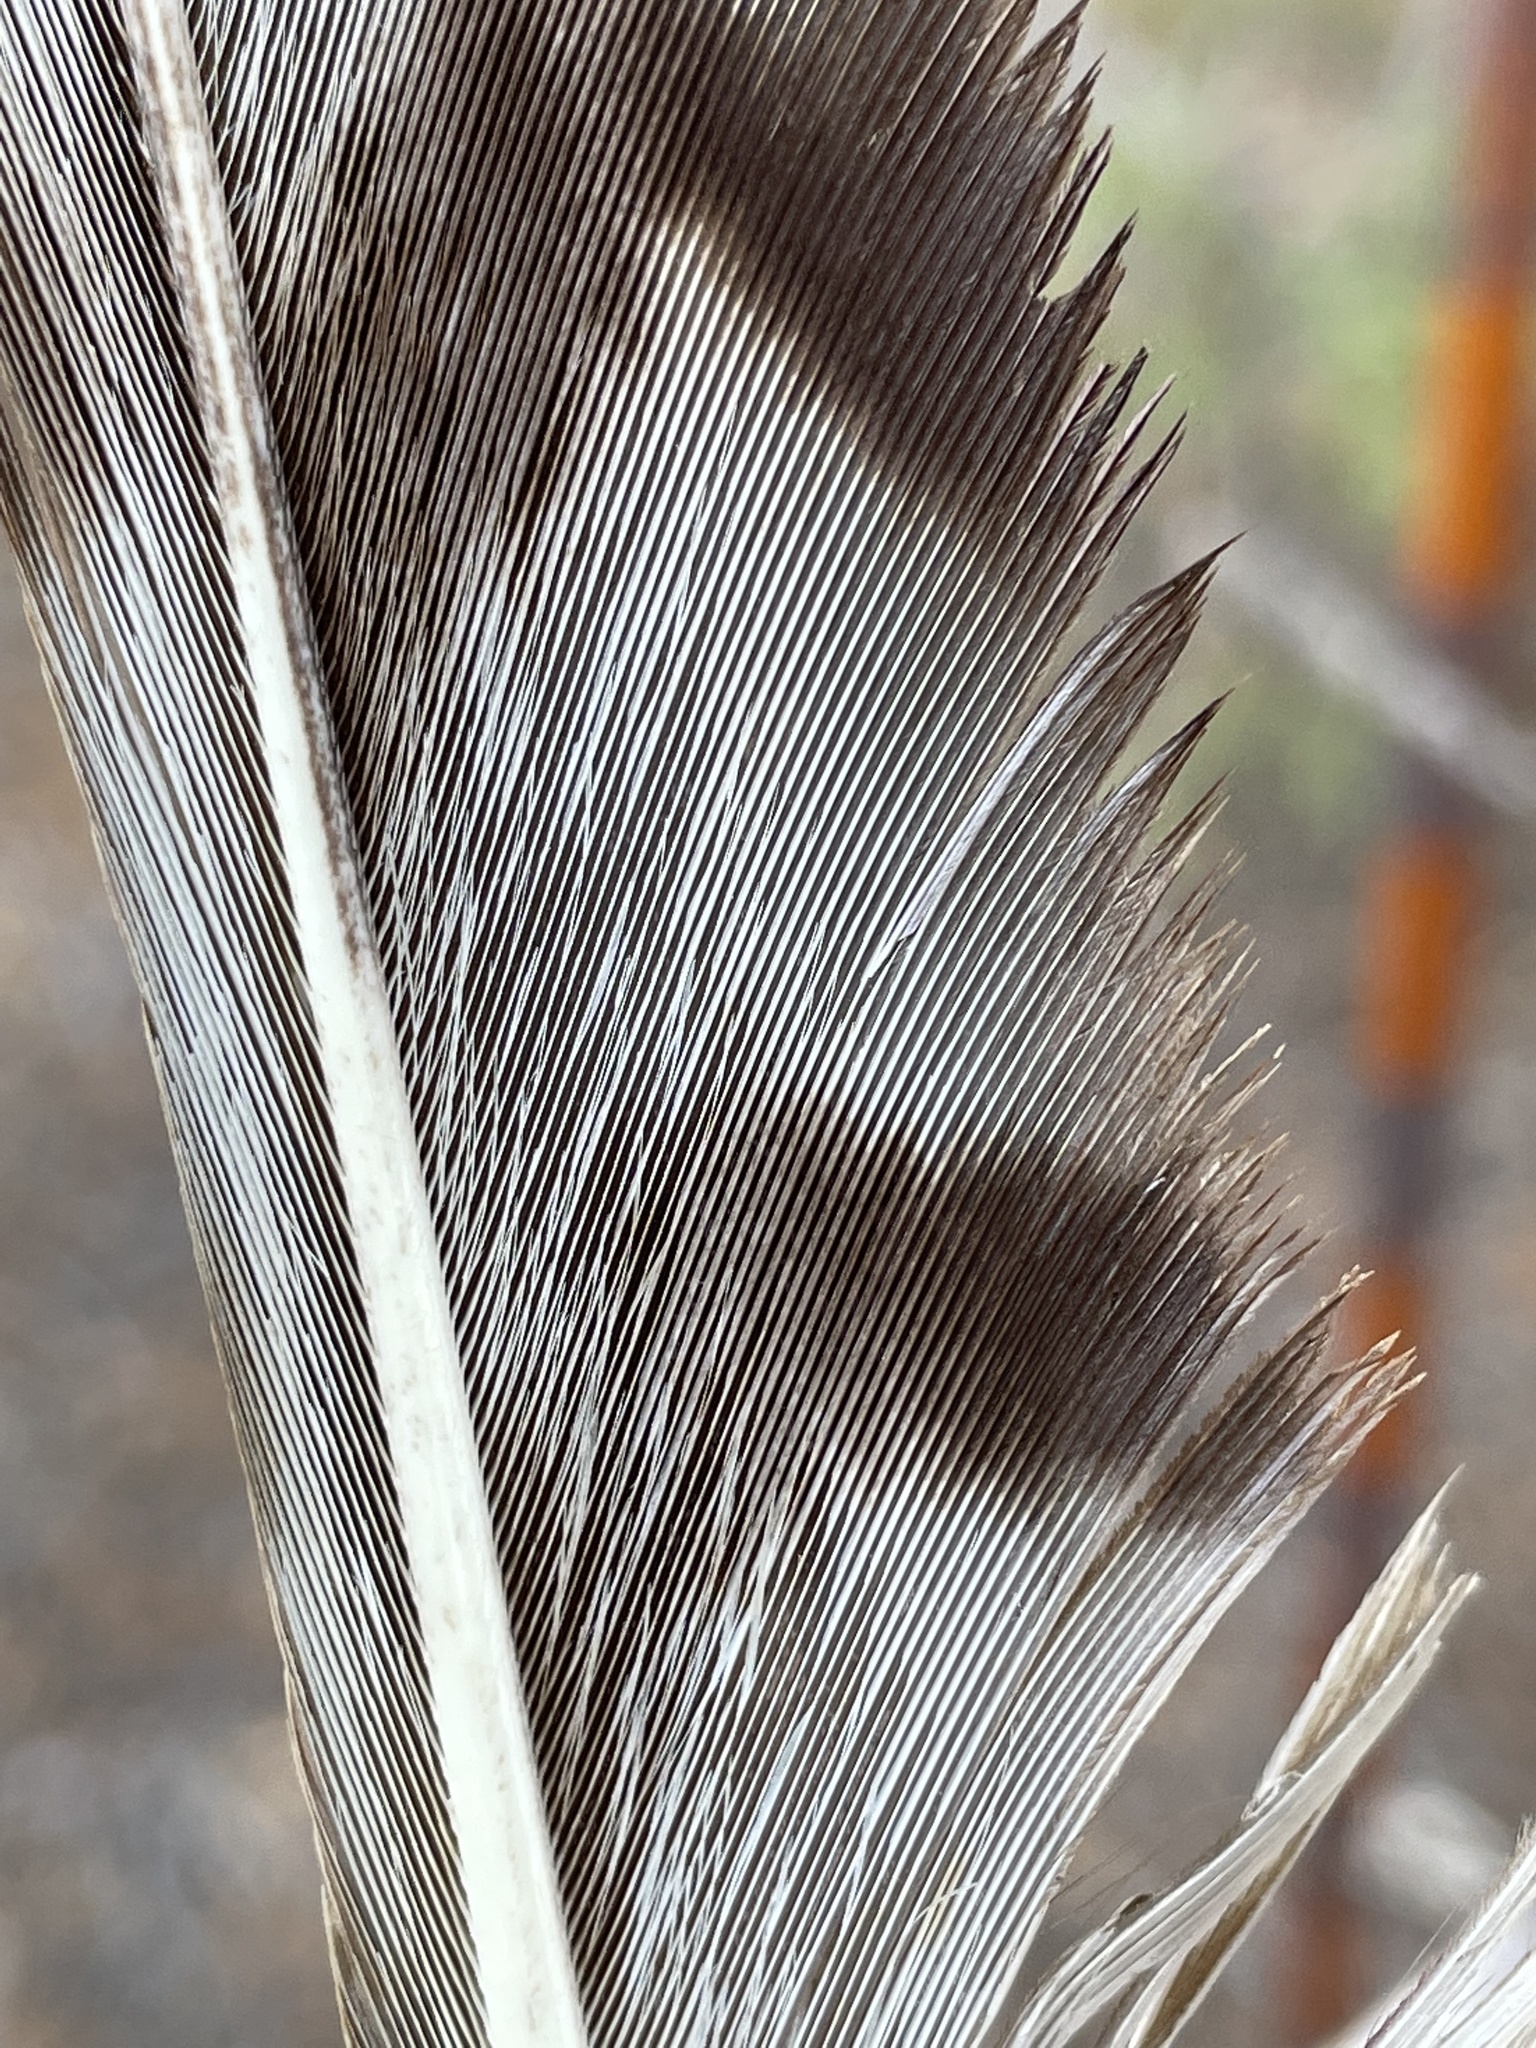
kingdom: Animalia
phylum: Chordata
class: Aves
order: Accipitriformes
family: Accipitridae
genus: Buteo
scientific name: Buteo jamaicensis
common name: Red-tailed hawk
